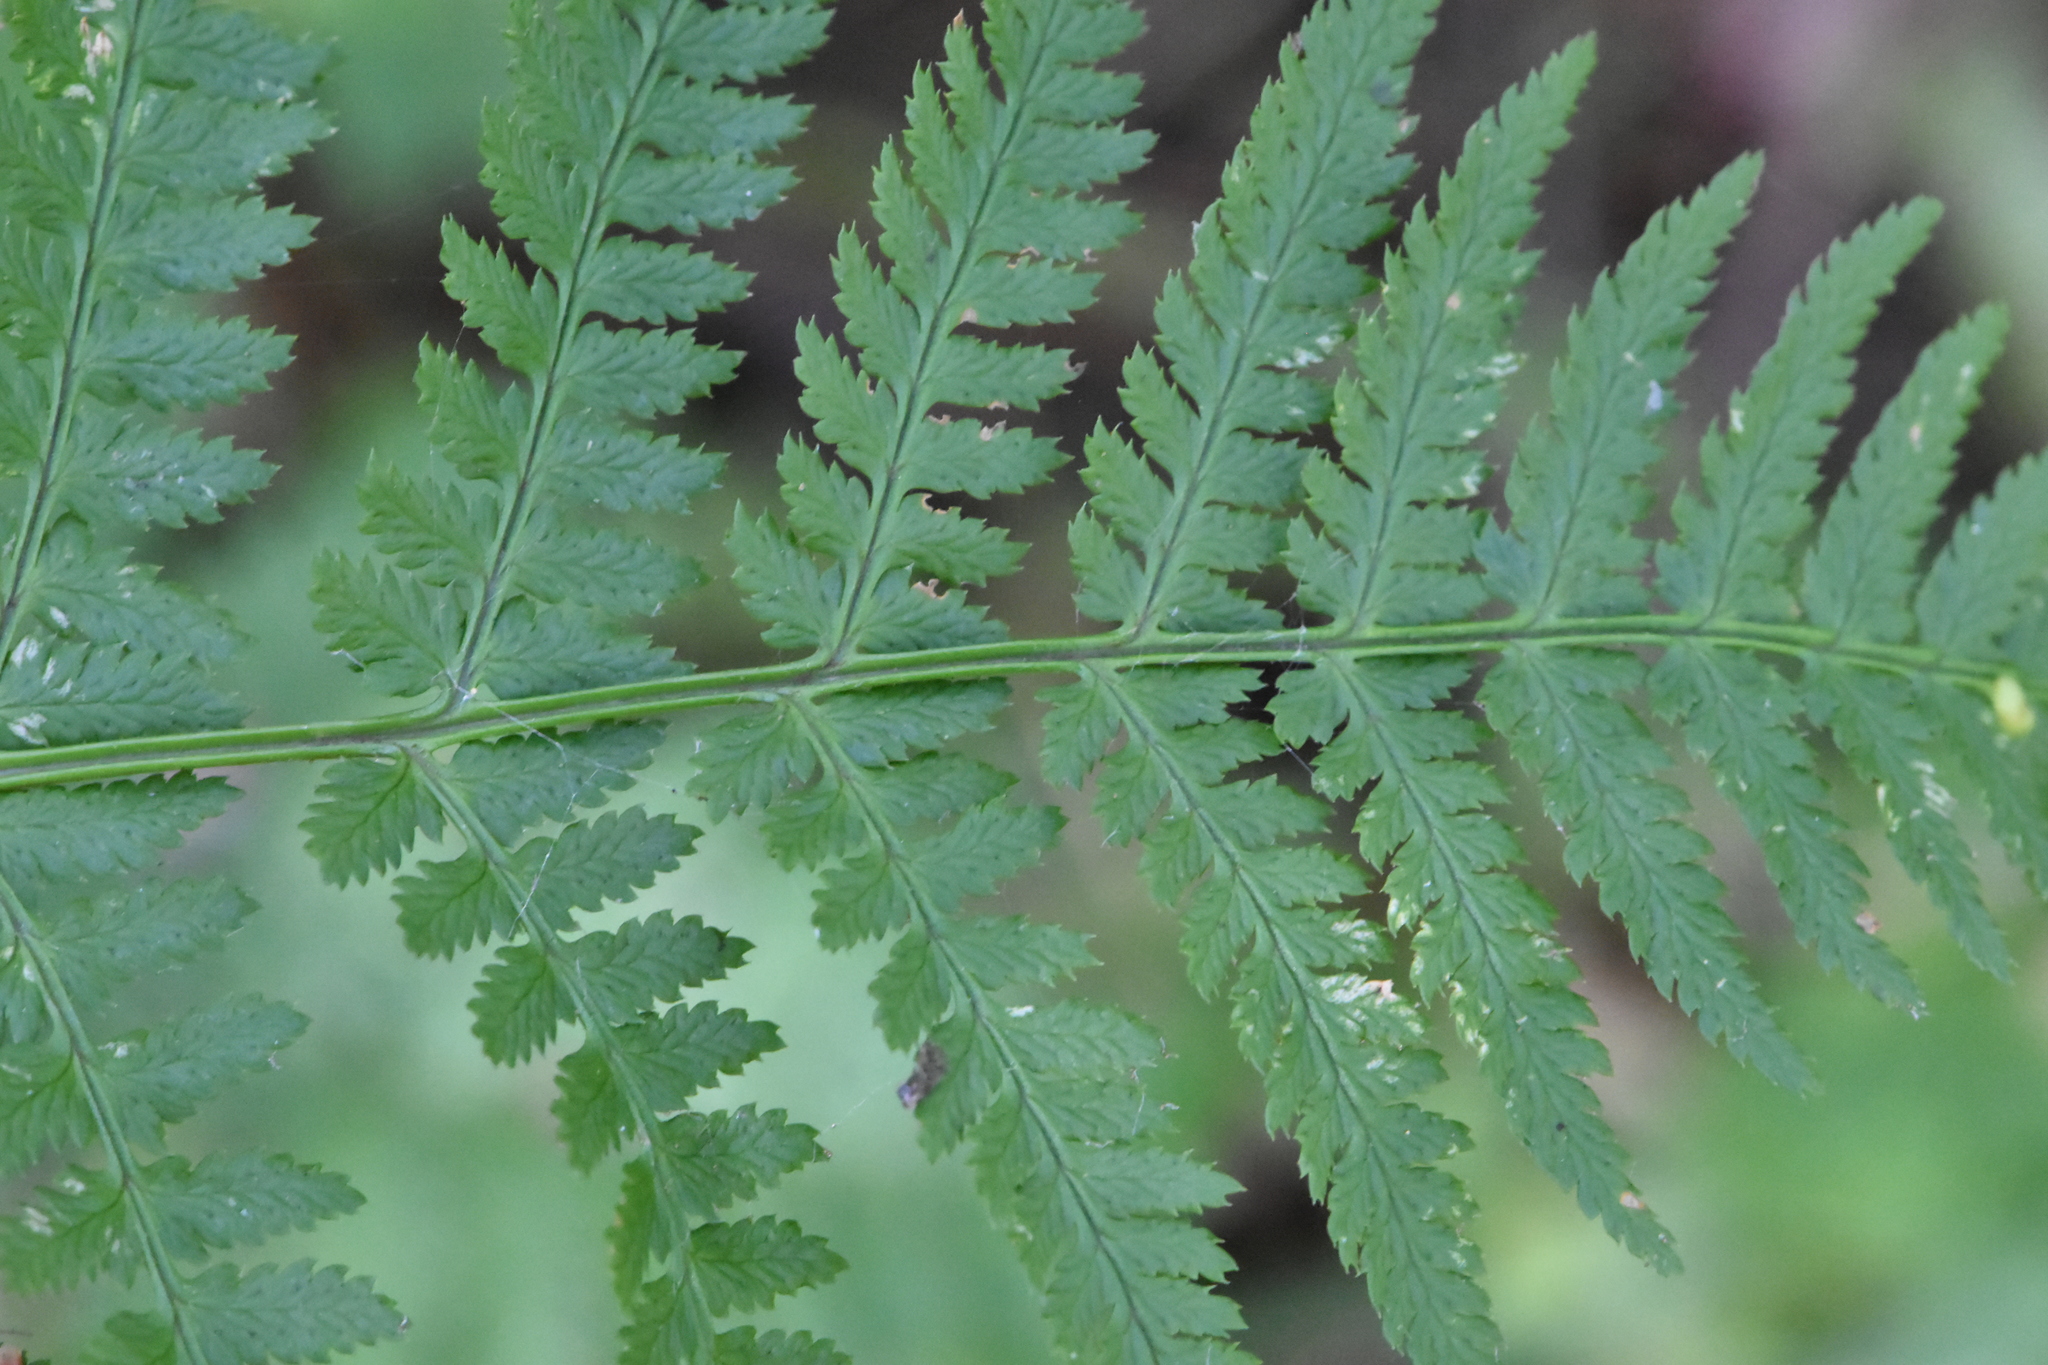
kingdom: Plantae
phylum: Tracheophyta
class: Polypodiopsida
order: Polypodiales
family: Dryopteridaceae
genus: Dryopteris
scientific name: Dryopteris carthusiana
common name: Narrow buckler-fern
